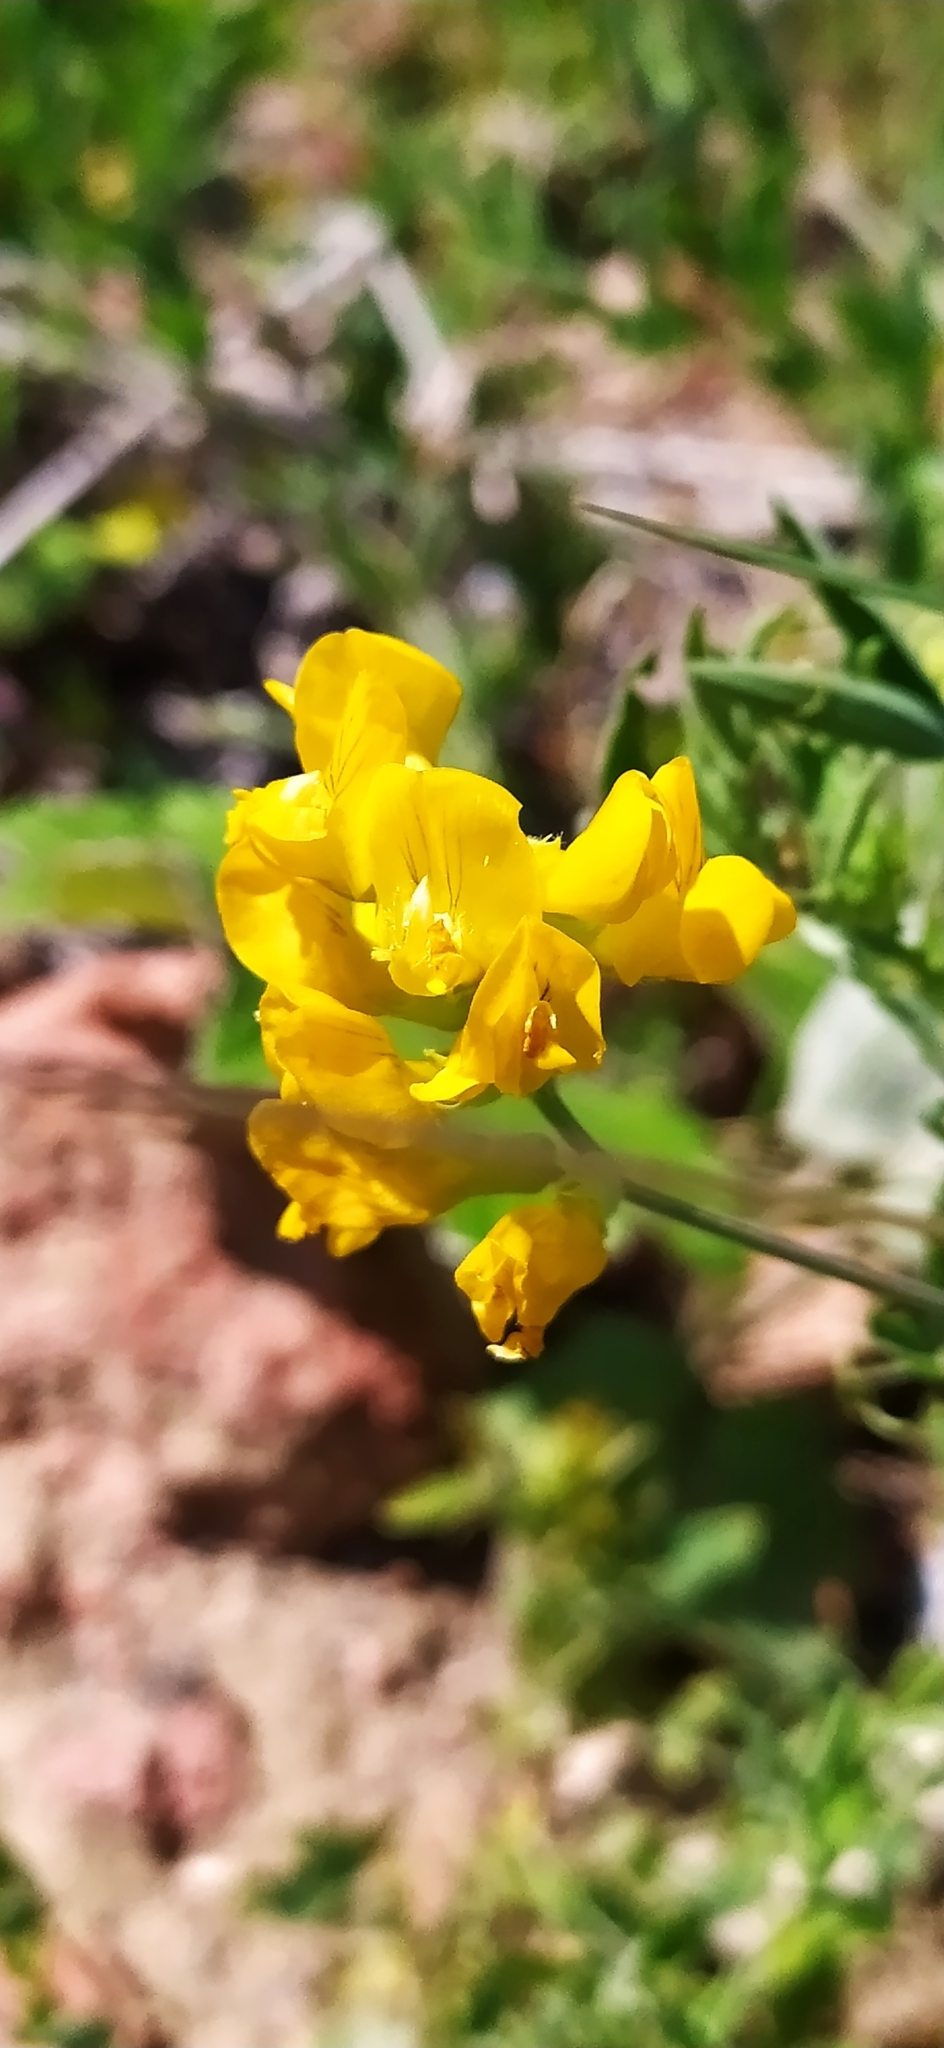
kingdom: Plantae
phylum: Tracheophyta
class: Magnoliopsida
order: Fabales
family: Fabaceae
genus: Lathyrus
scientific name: Lathyrus pratensis
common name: Meadow vetchling
